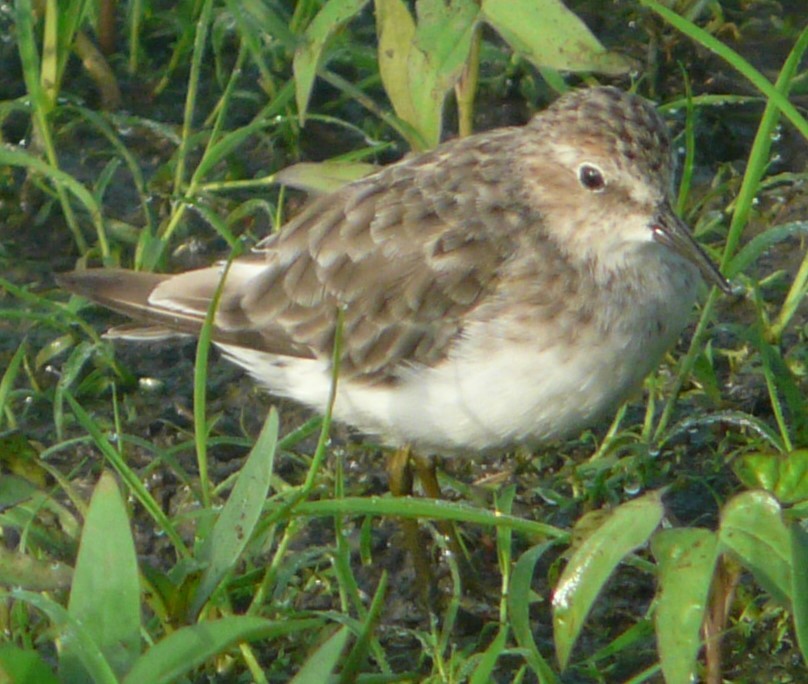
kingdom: Animalia
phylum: Chordata
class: Aves
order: Charadriiformes
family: Scolopacidae
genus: Calidris
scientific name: Calidris minutilla
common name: Least sandpiper
